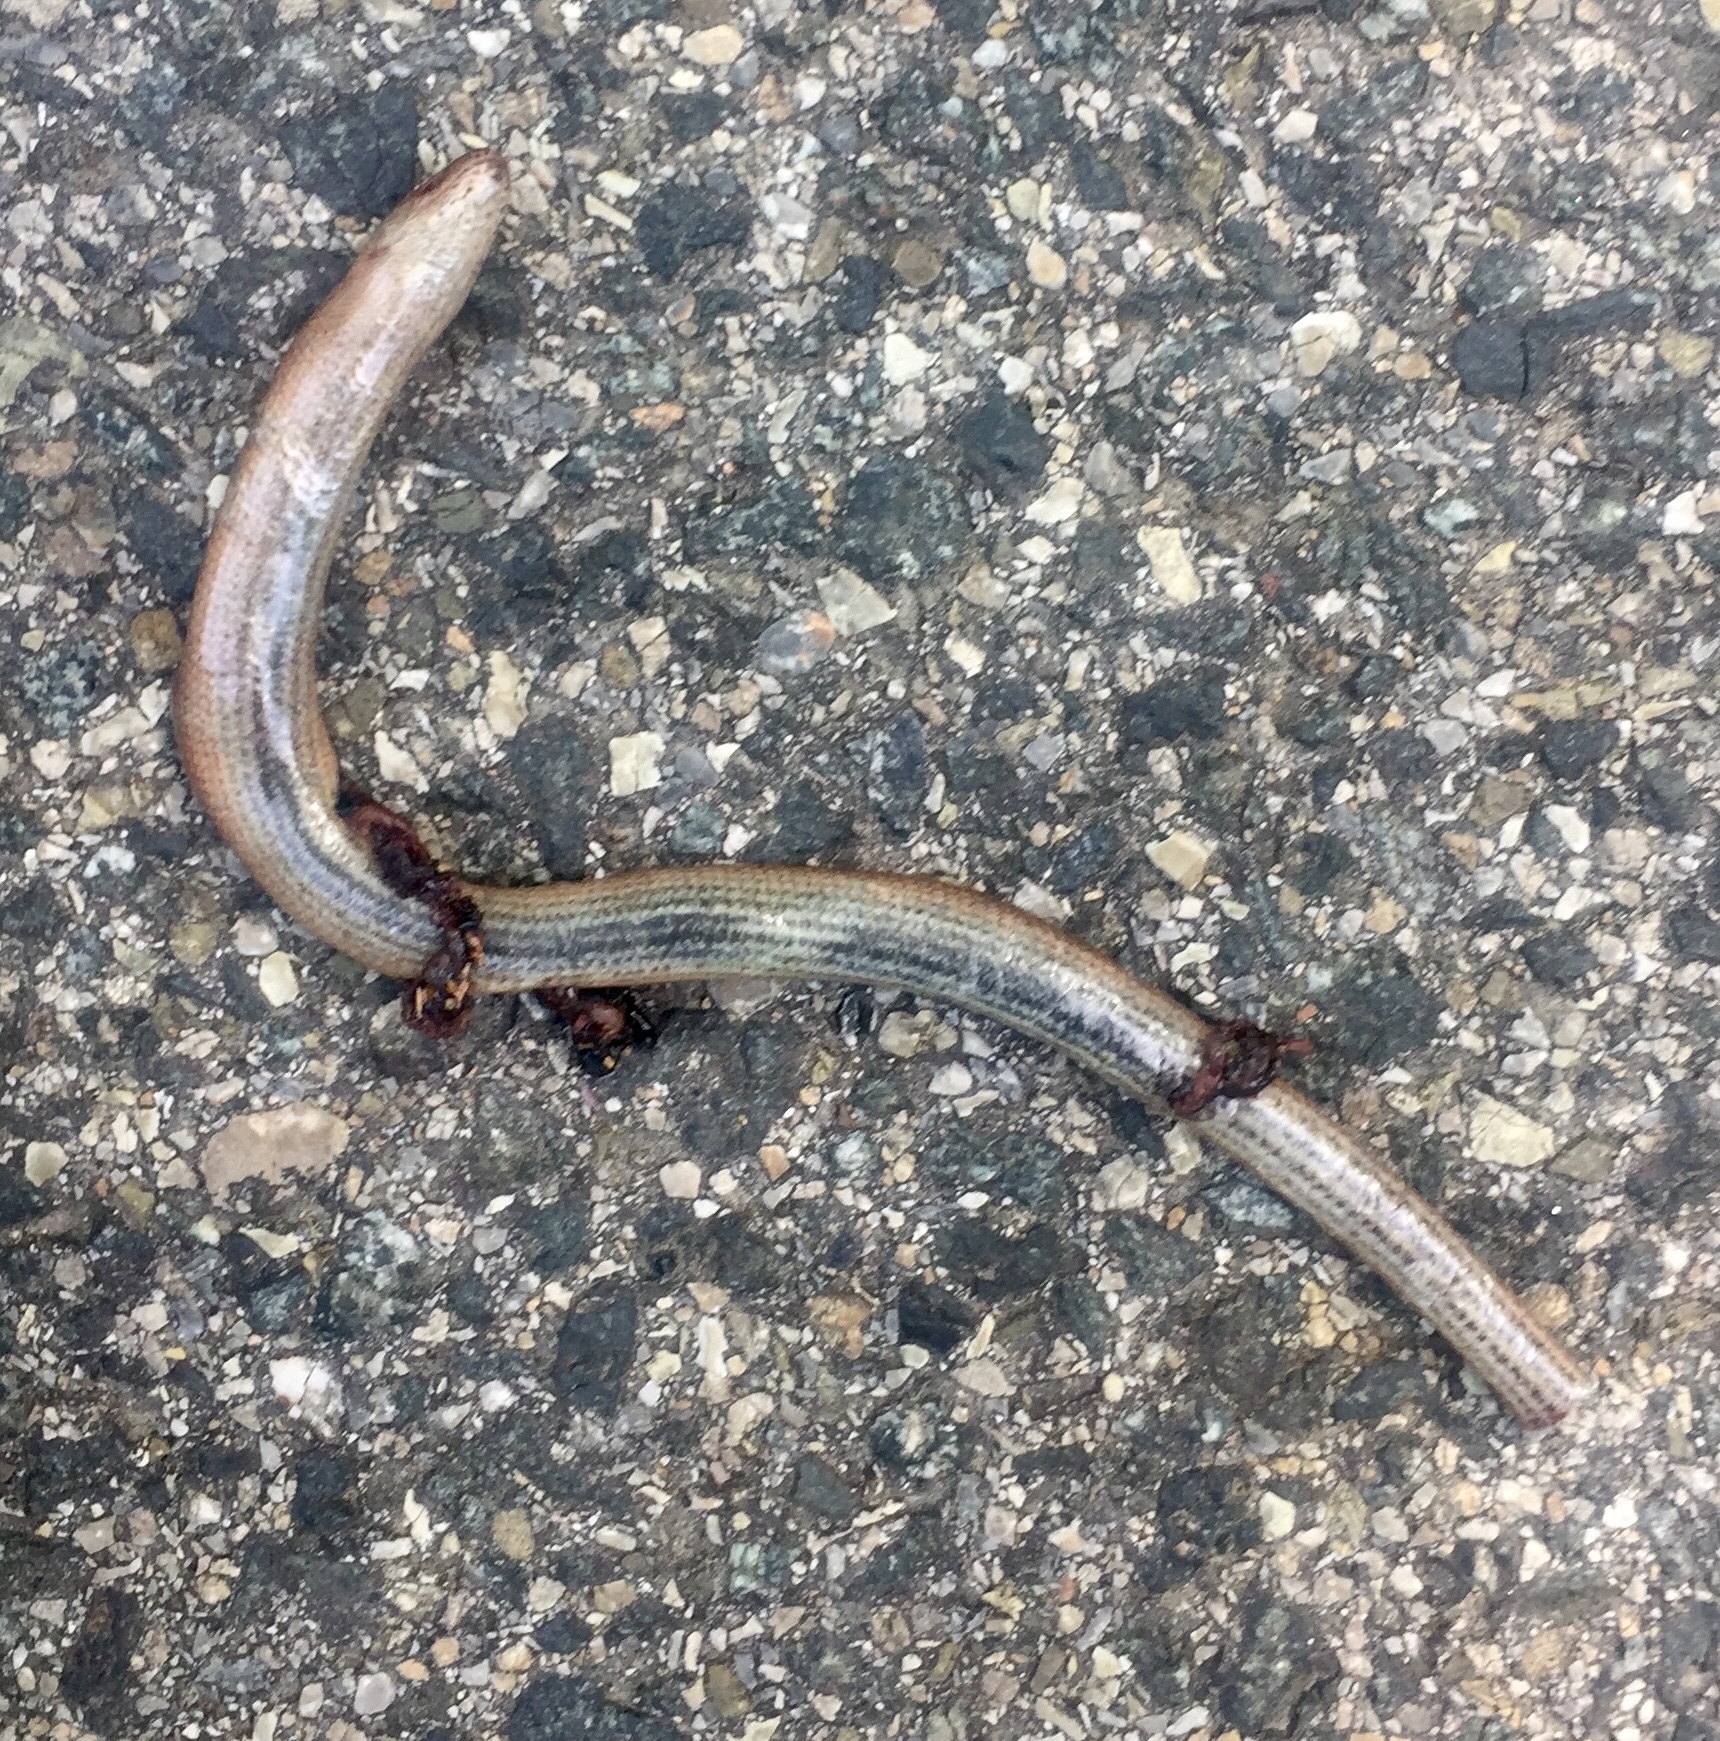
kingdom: Animalia
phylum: Chordata
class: Squamata
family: Anguidae
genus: Anguis
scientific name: Anguis veronensis
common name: Italian slow worm
